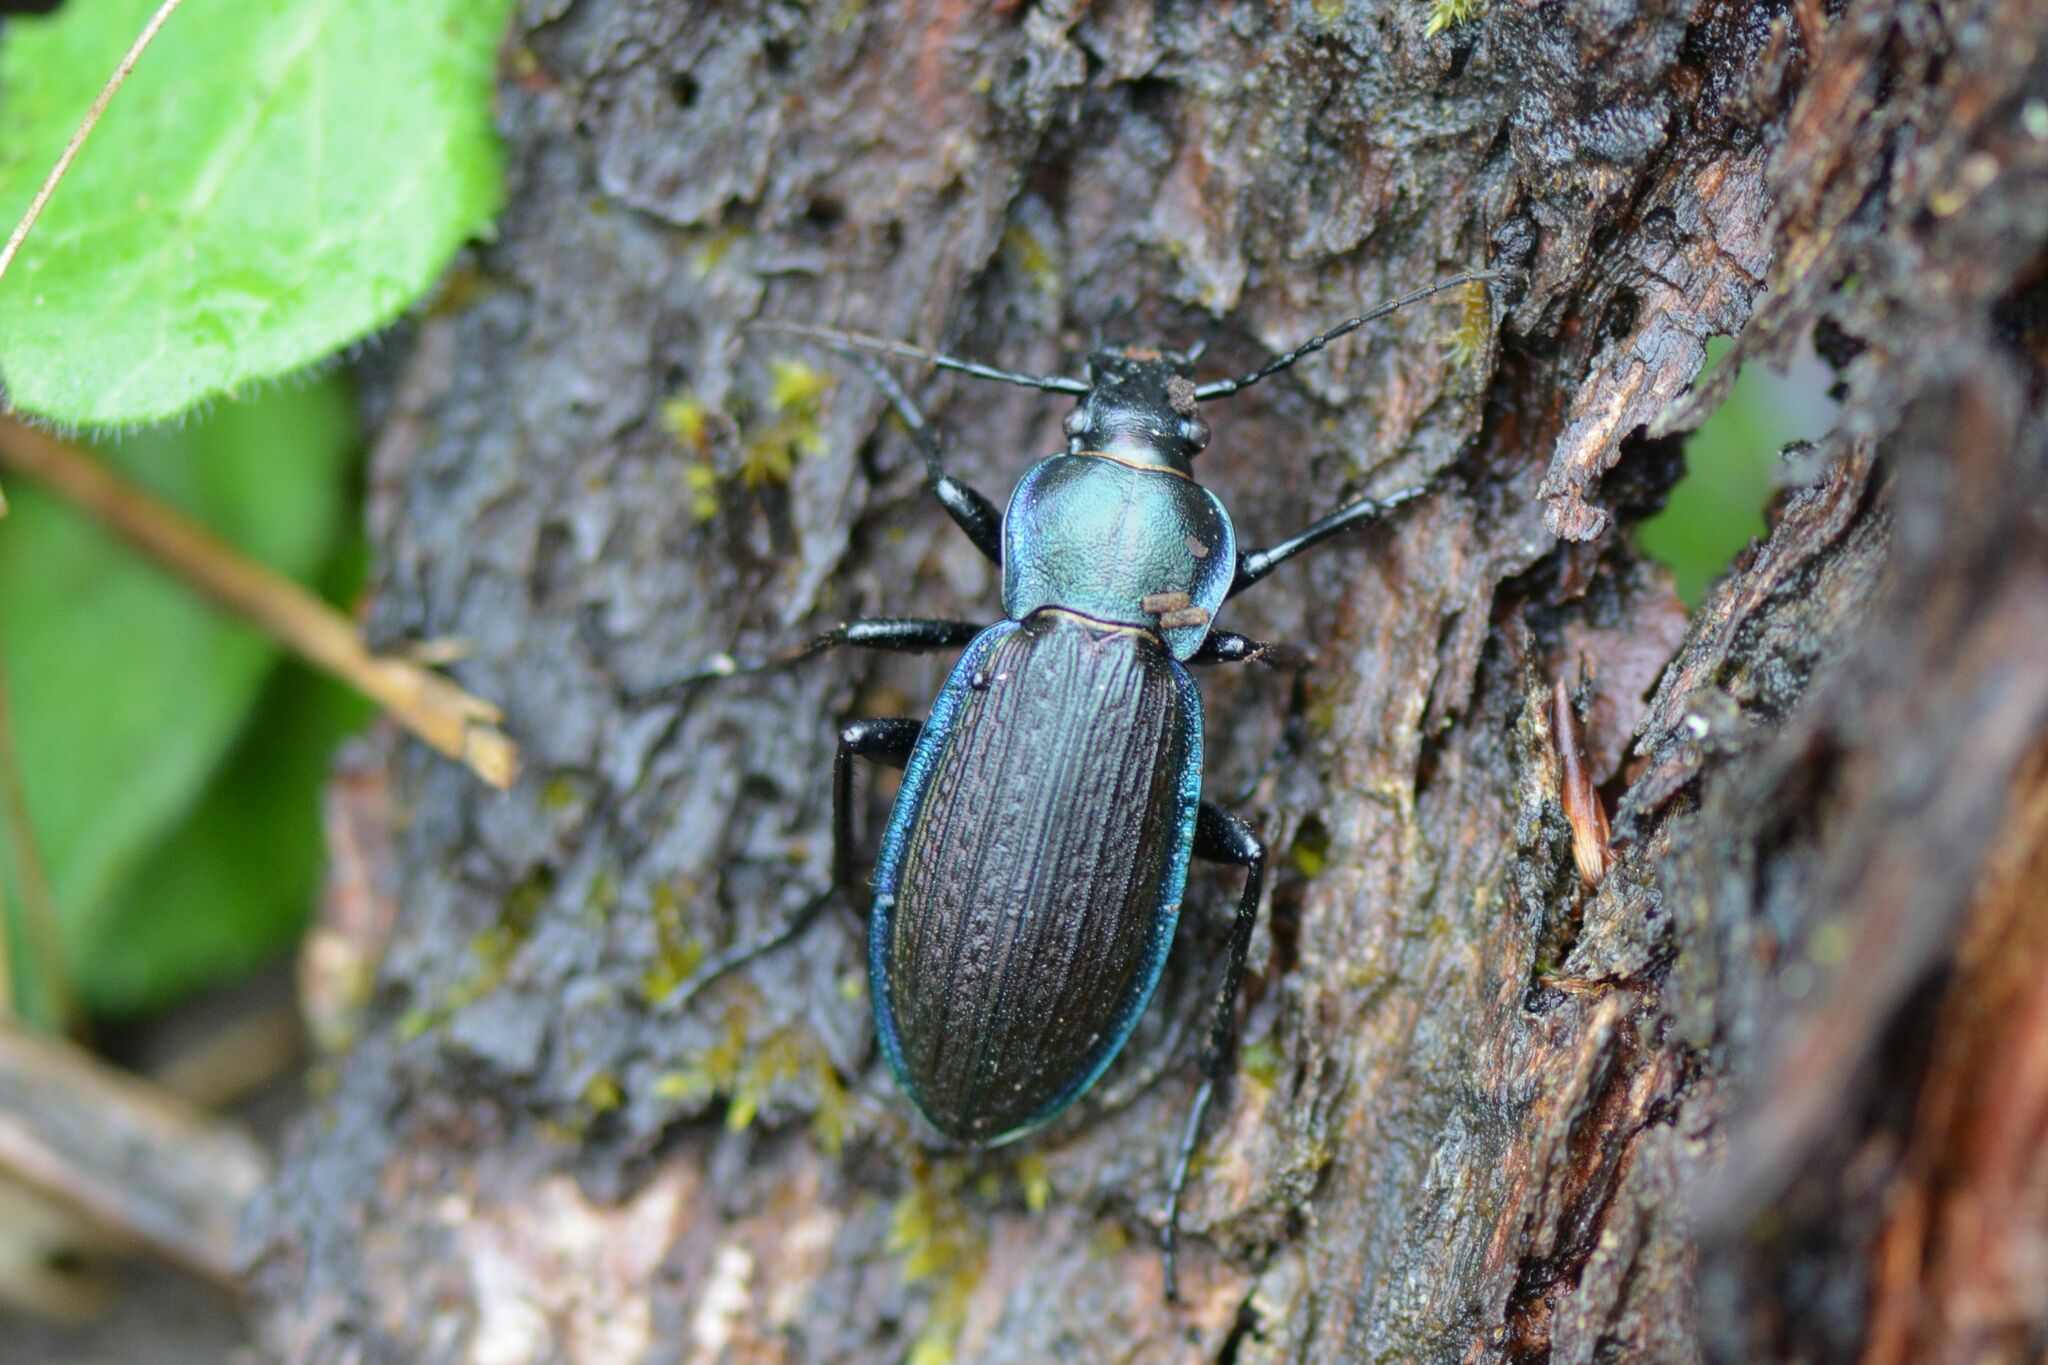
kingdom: Animalia
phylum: Arthropoda
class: Insecta
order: Coleoptera
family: Carabidae
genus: Carabus
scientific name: Carabus monilis
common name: Necklace ground beetle
